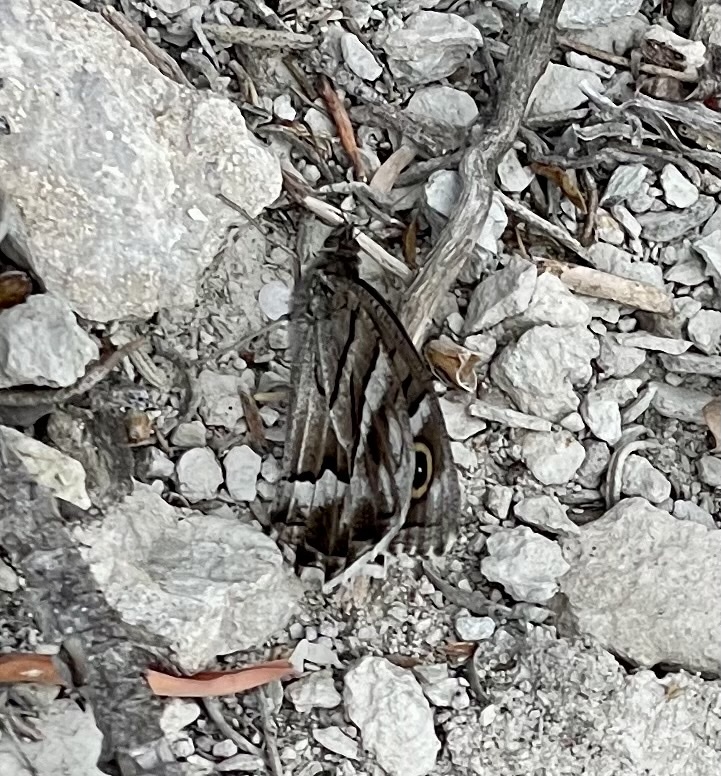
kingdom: Animalia
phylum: Arthropoda
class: Insecta
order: Lepidoptera
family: Nymphalidae
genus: Hipparchia
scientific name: Hipparchia fidia
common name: Striped grayling
